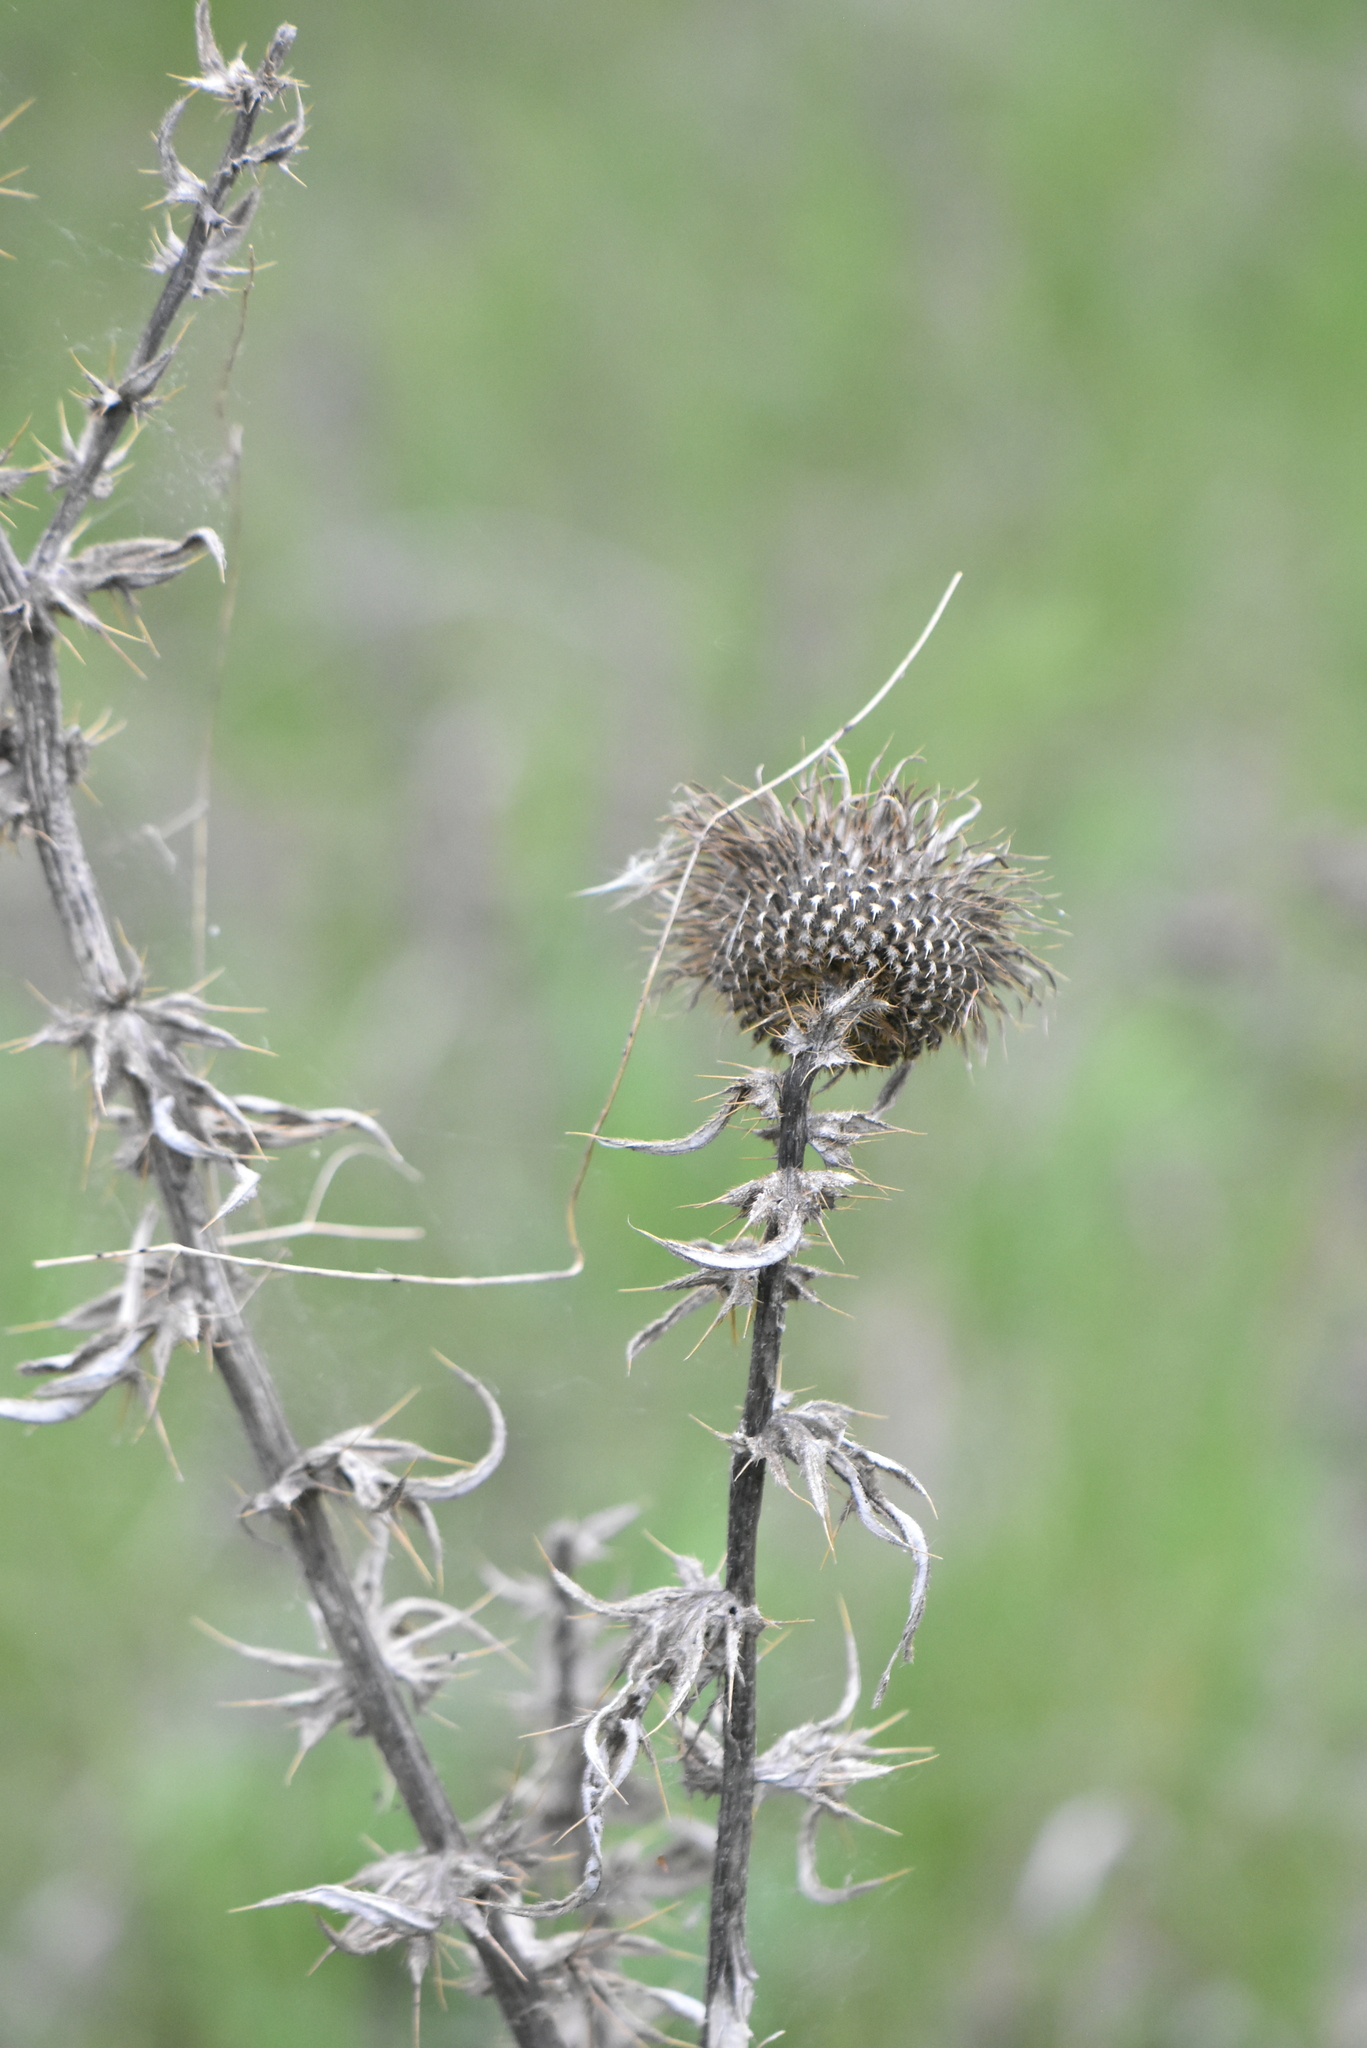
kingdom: Plantae
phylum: Tracheophyta
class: Magnoliopsida
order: Asterales
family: Asteraceae
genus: Cirsium
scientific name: Cirsium serrulatum
